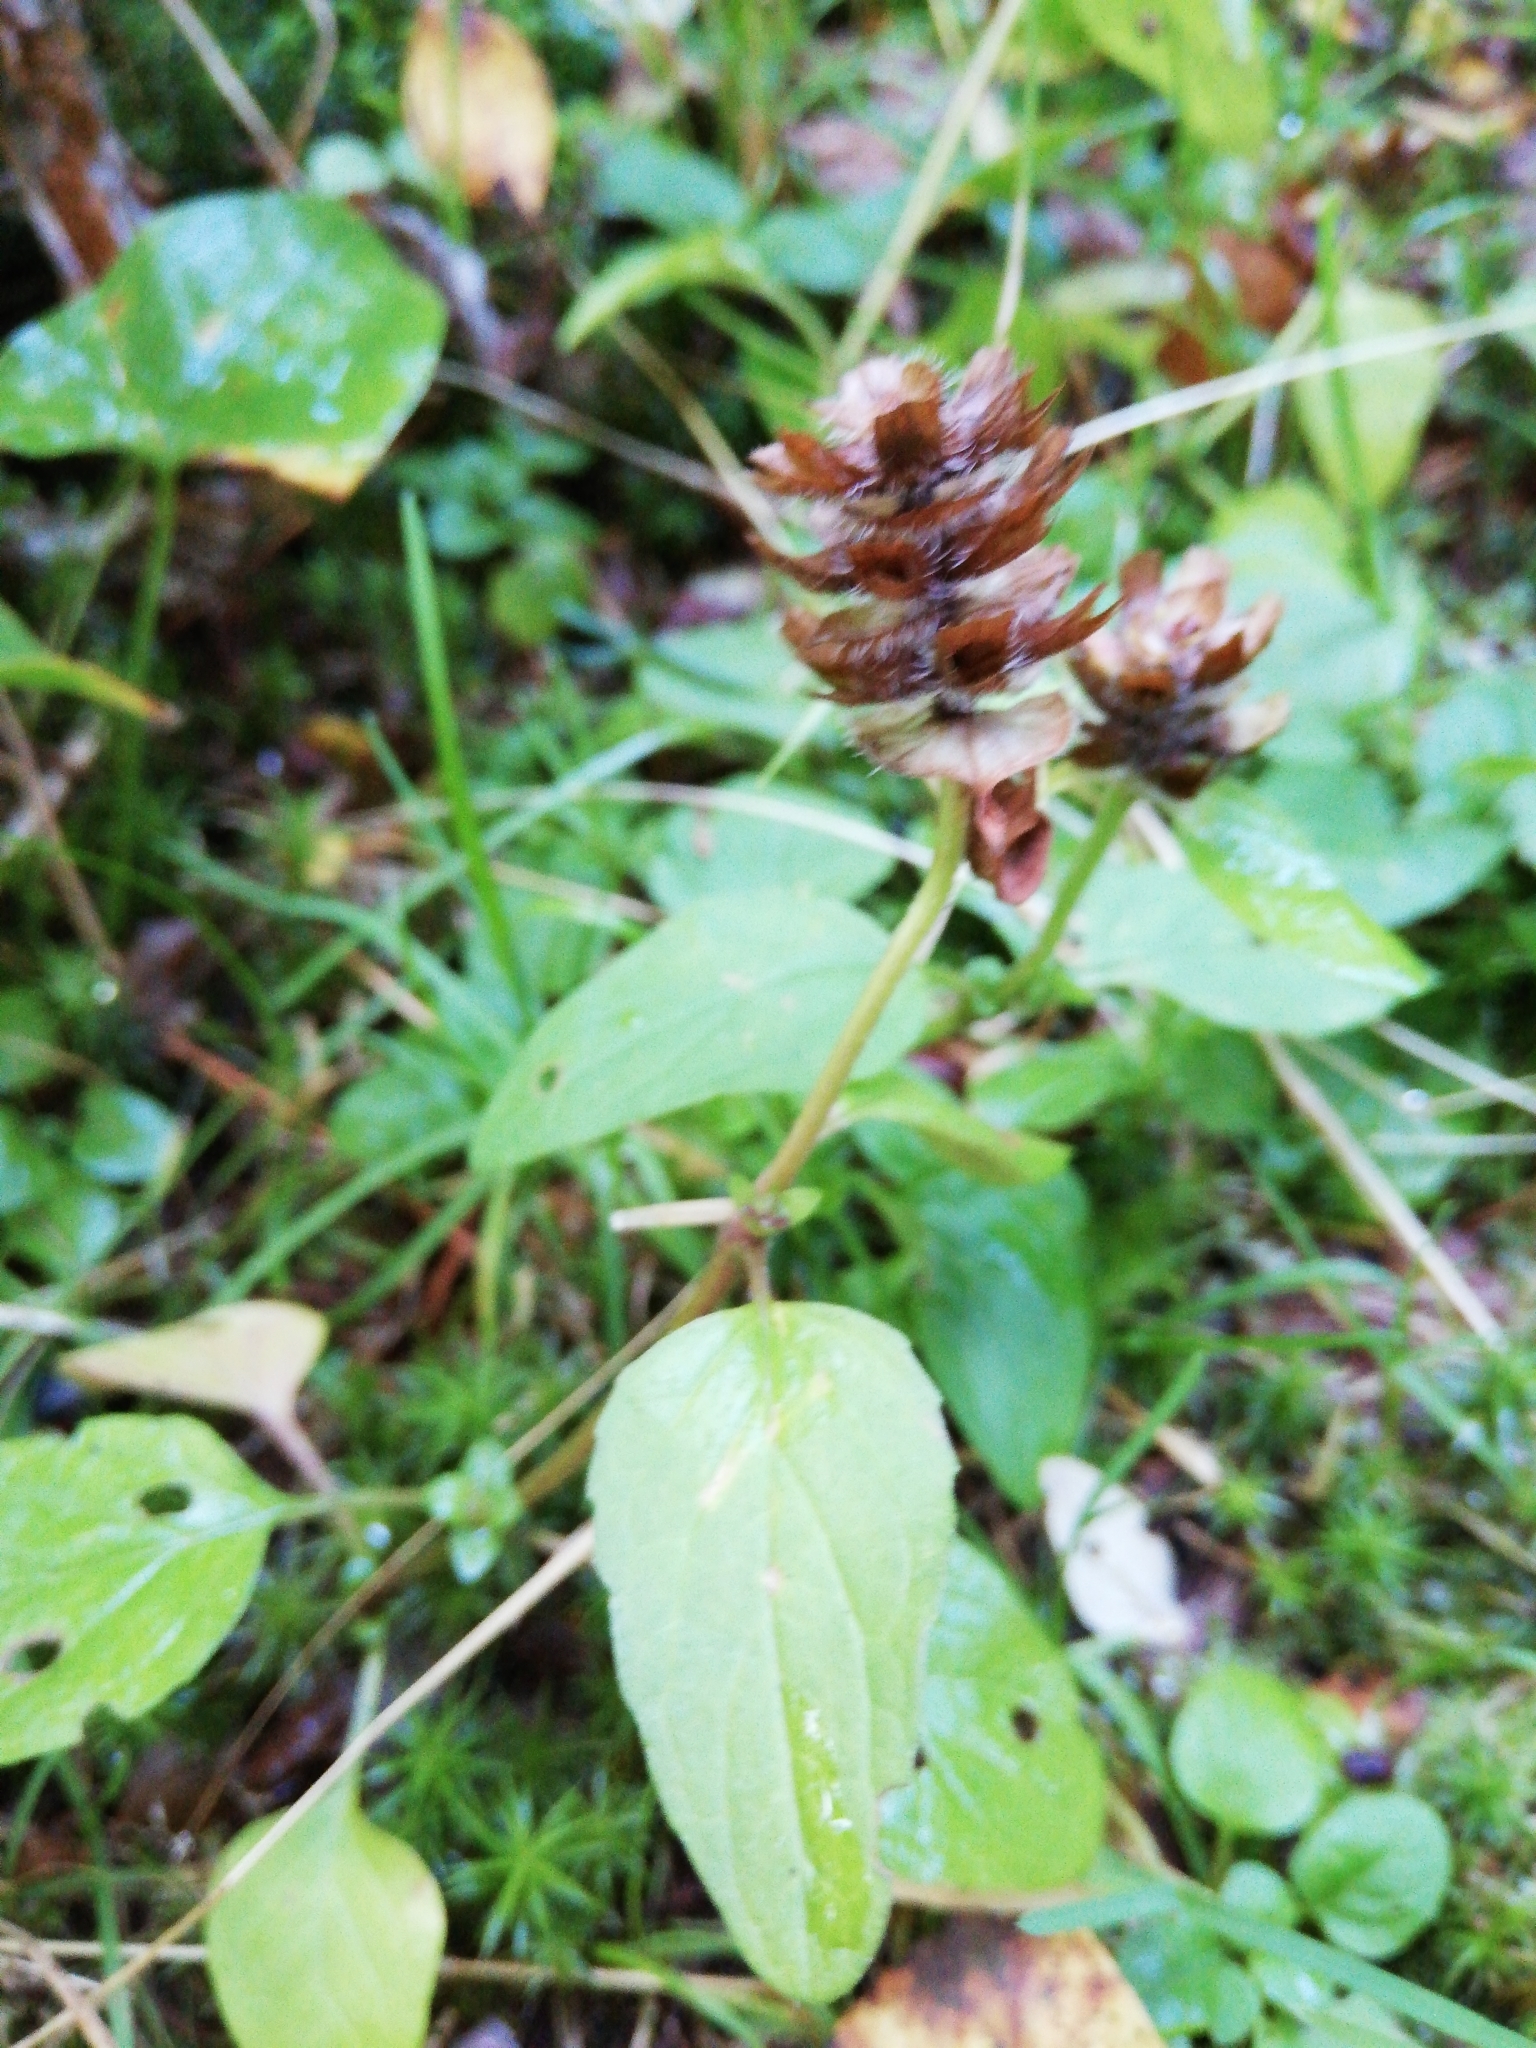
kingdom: Plantae
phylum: Tracheophyta
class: Magnoliopsida
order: Lamiales
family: Lamiaceae
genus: Prunella
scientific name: Prunella vulgaris
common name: Heal-all
